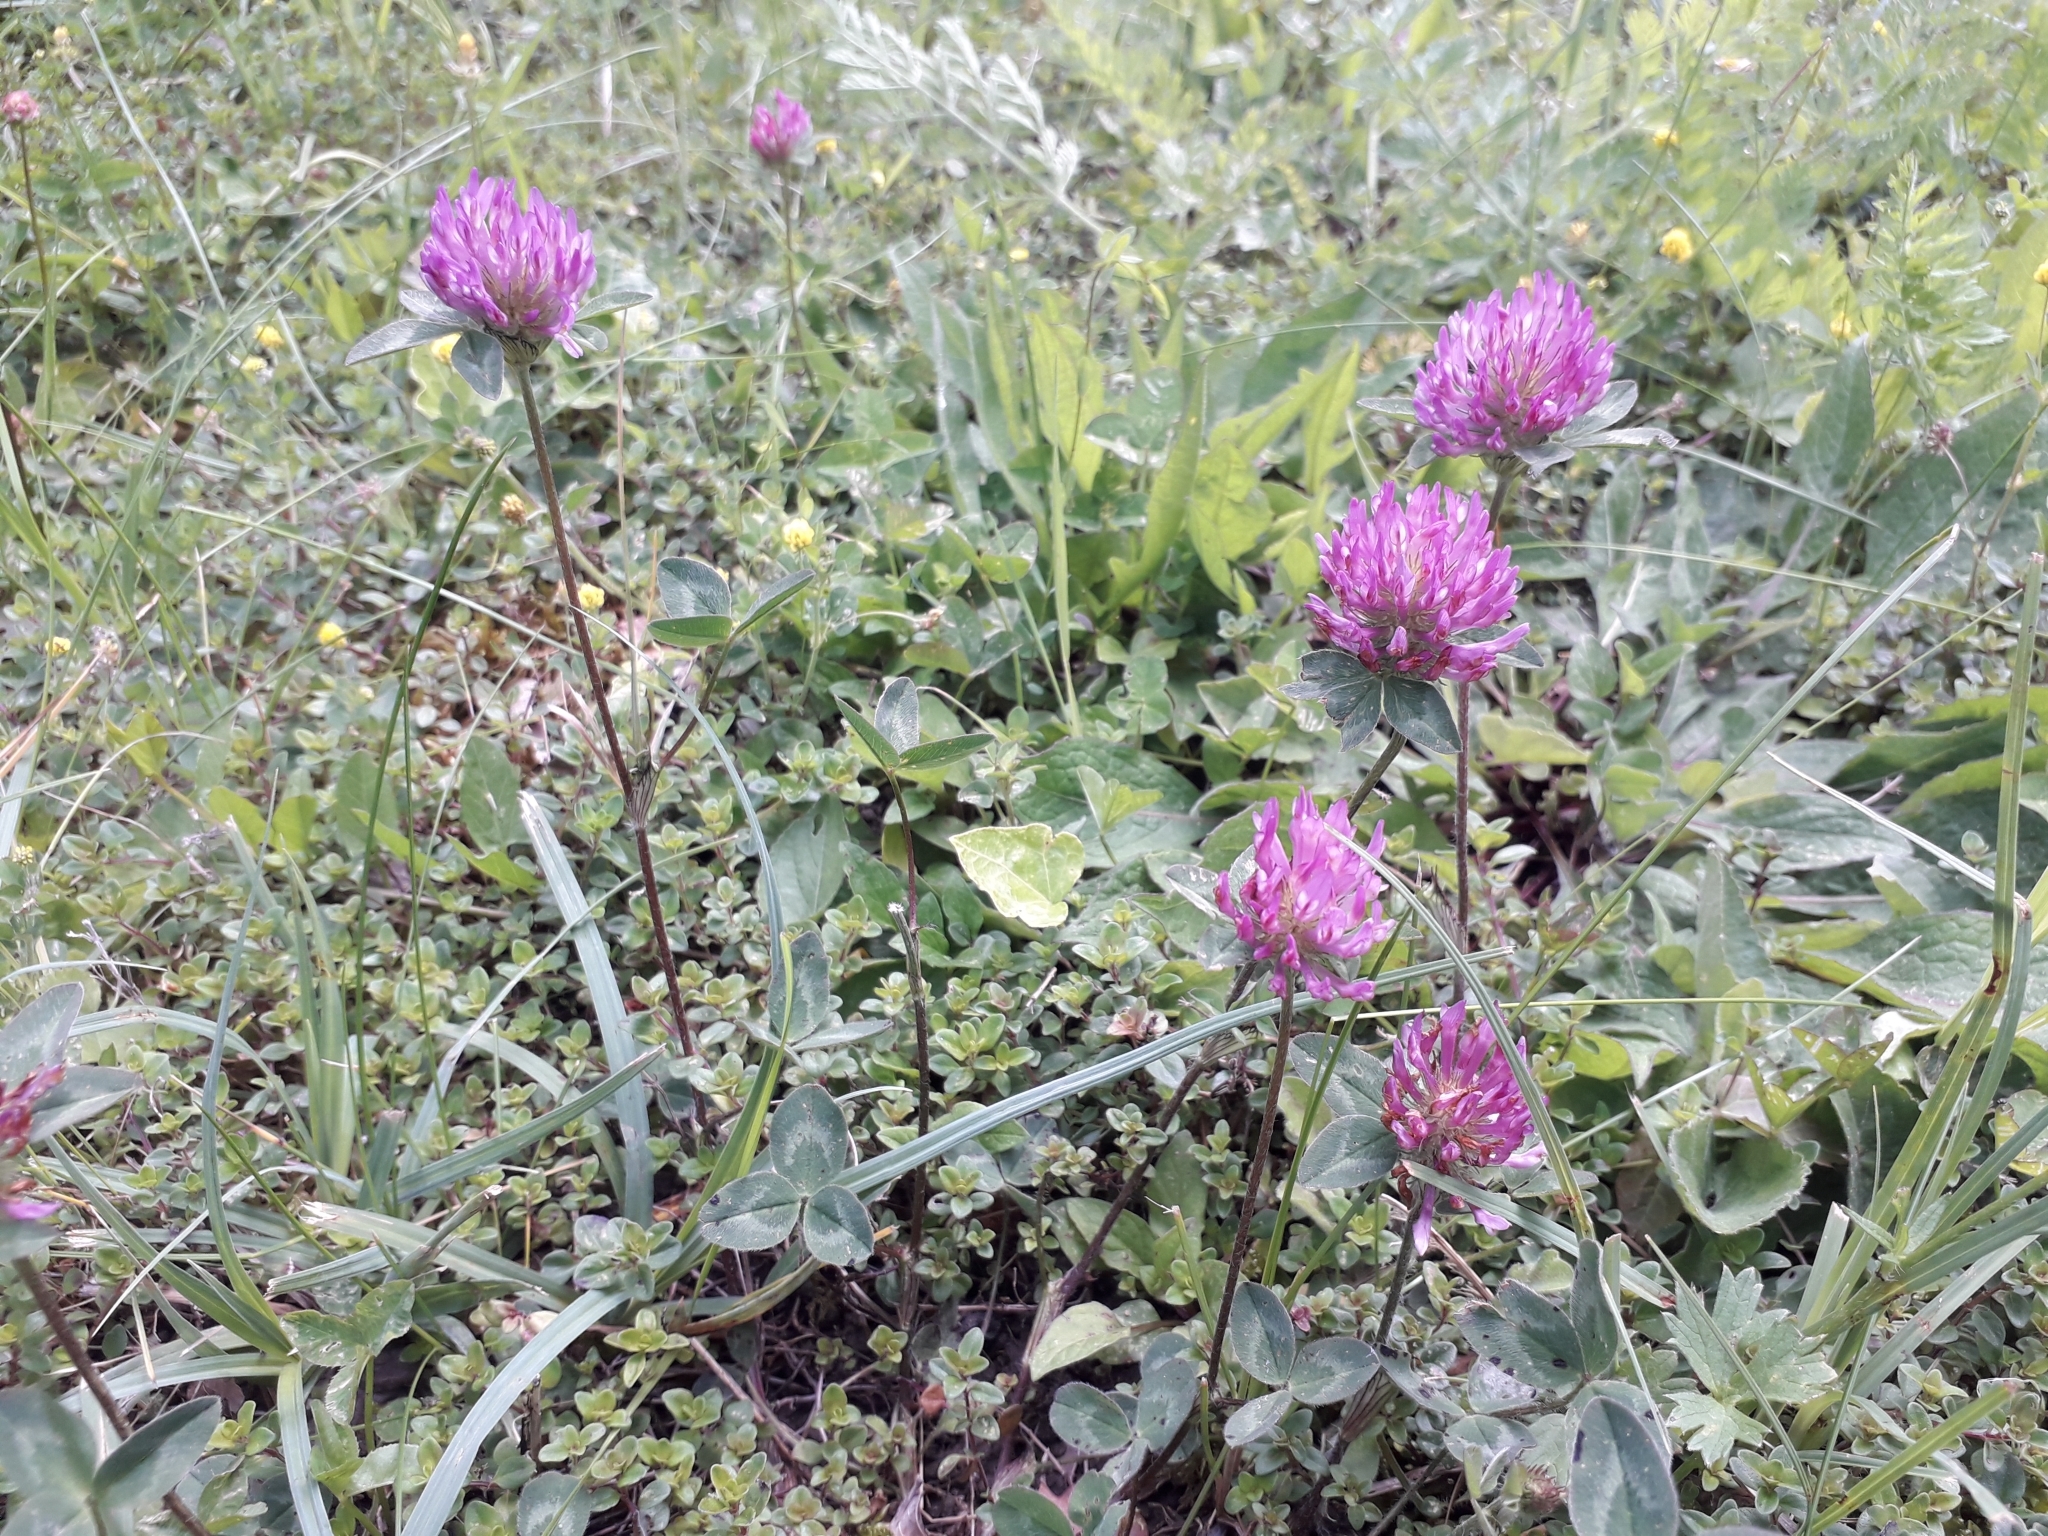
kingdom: Plantae
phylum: Tracheophyta
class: Magnoliopsida
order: Fabales
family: Fabaceae
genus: Trifolium
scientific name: Trifolium pratense
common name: Red clover
